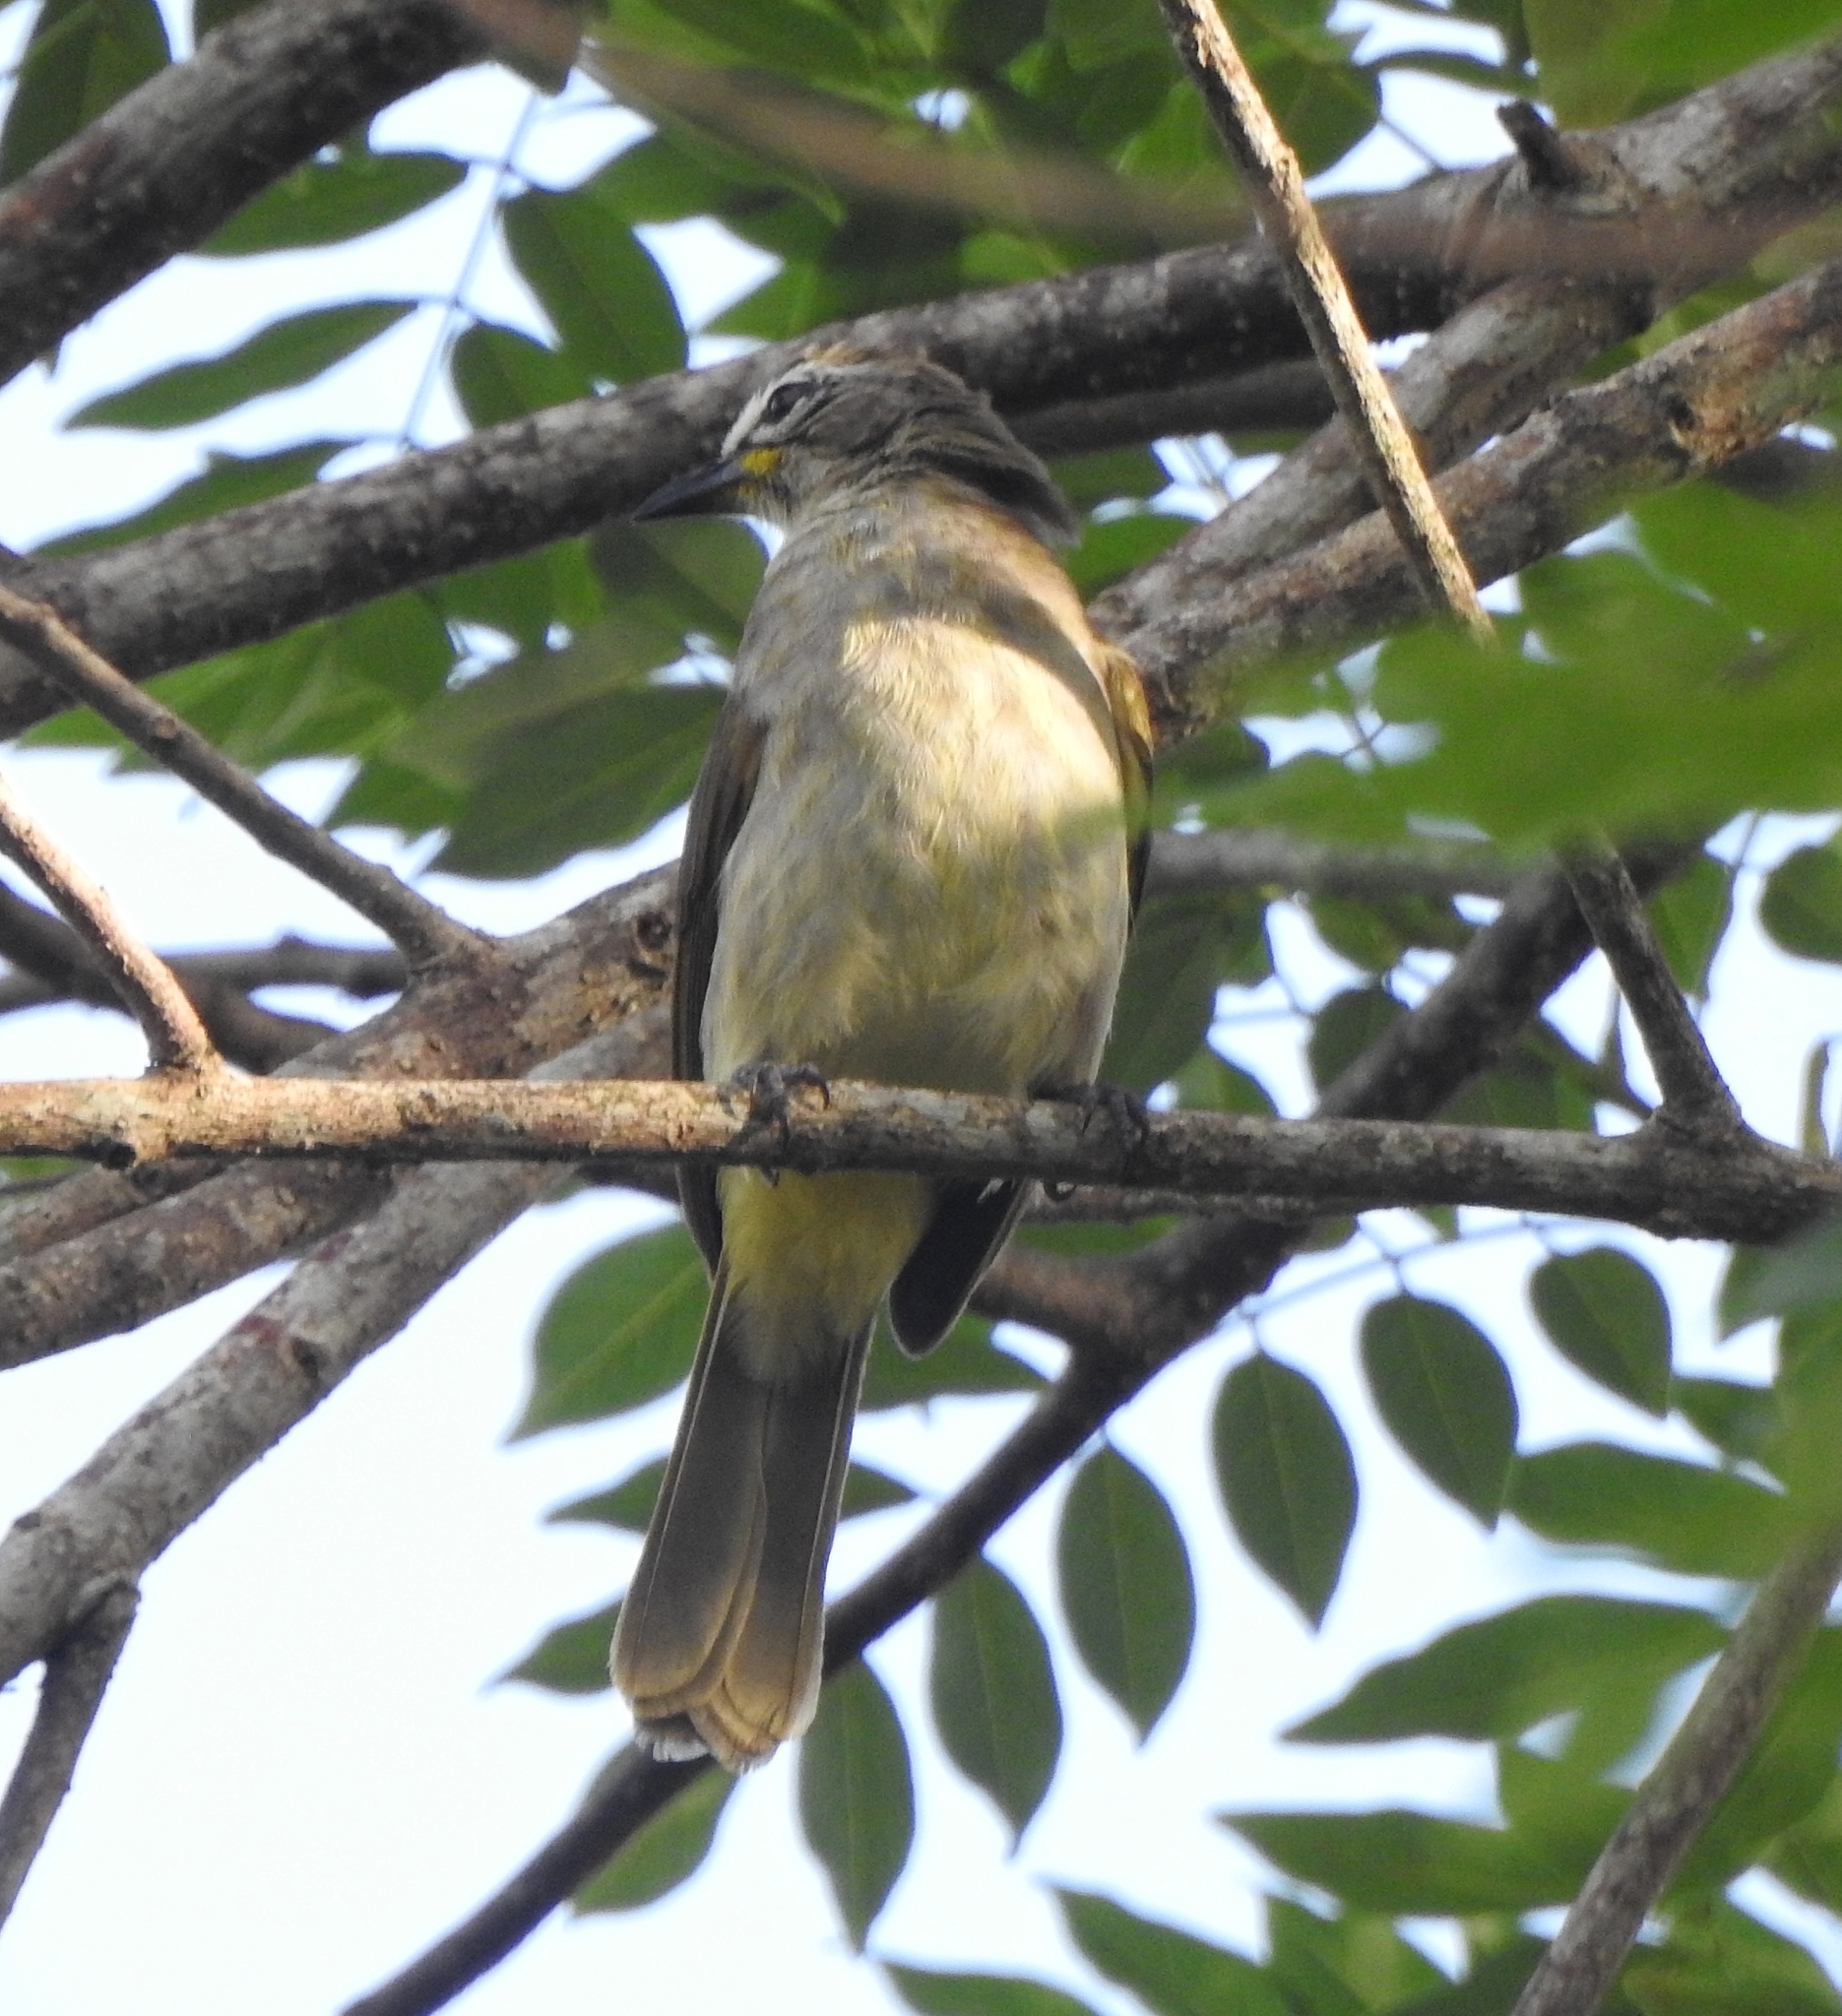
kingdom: Animalia
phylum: Chordata
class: Aves
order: Passeriformes
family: Pycnonotidae
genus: Pycnonotus
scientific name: Pycnonotus luteolus
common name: White-browed bulbul
